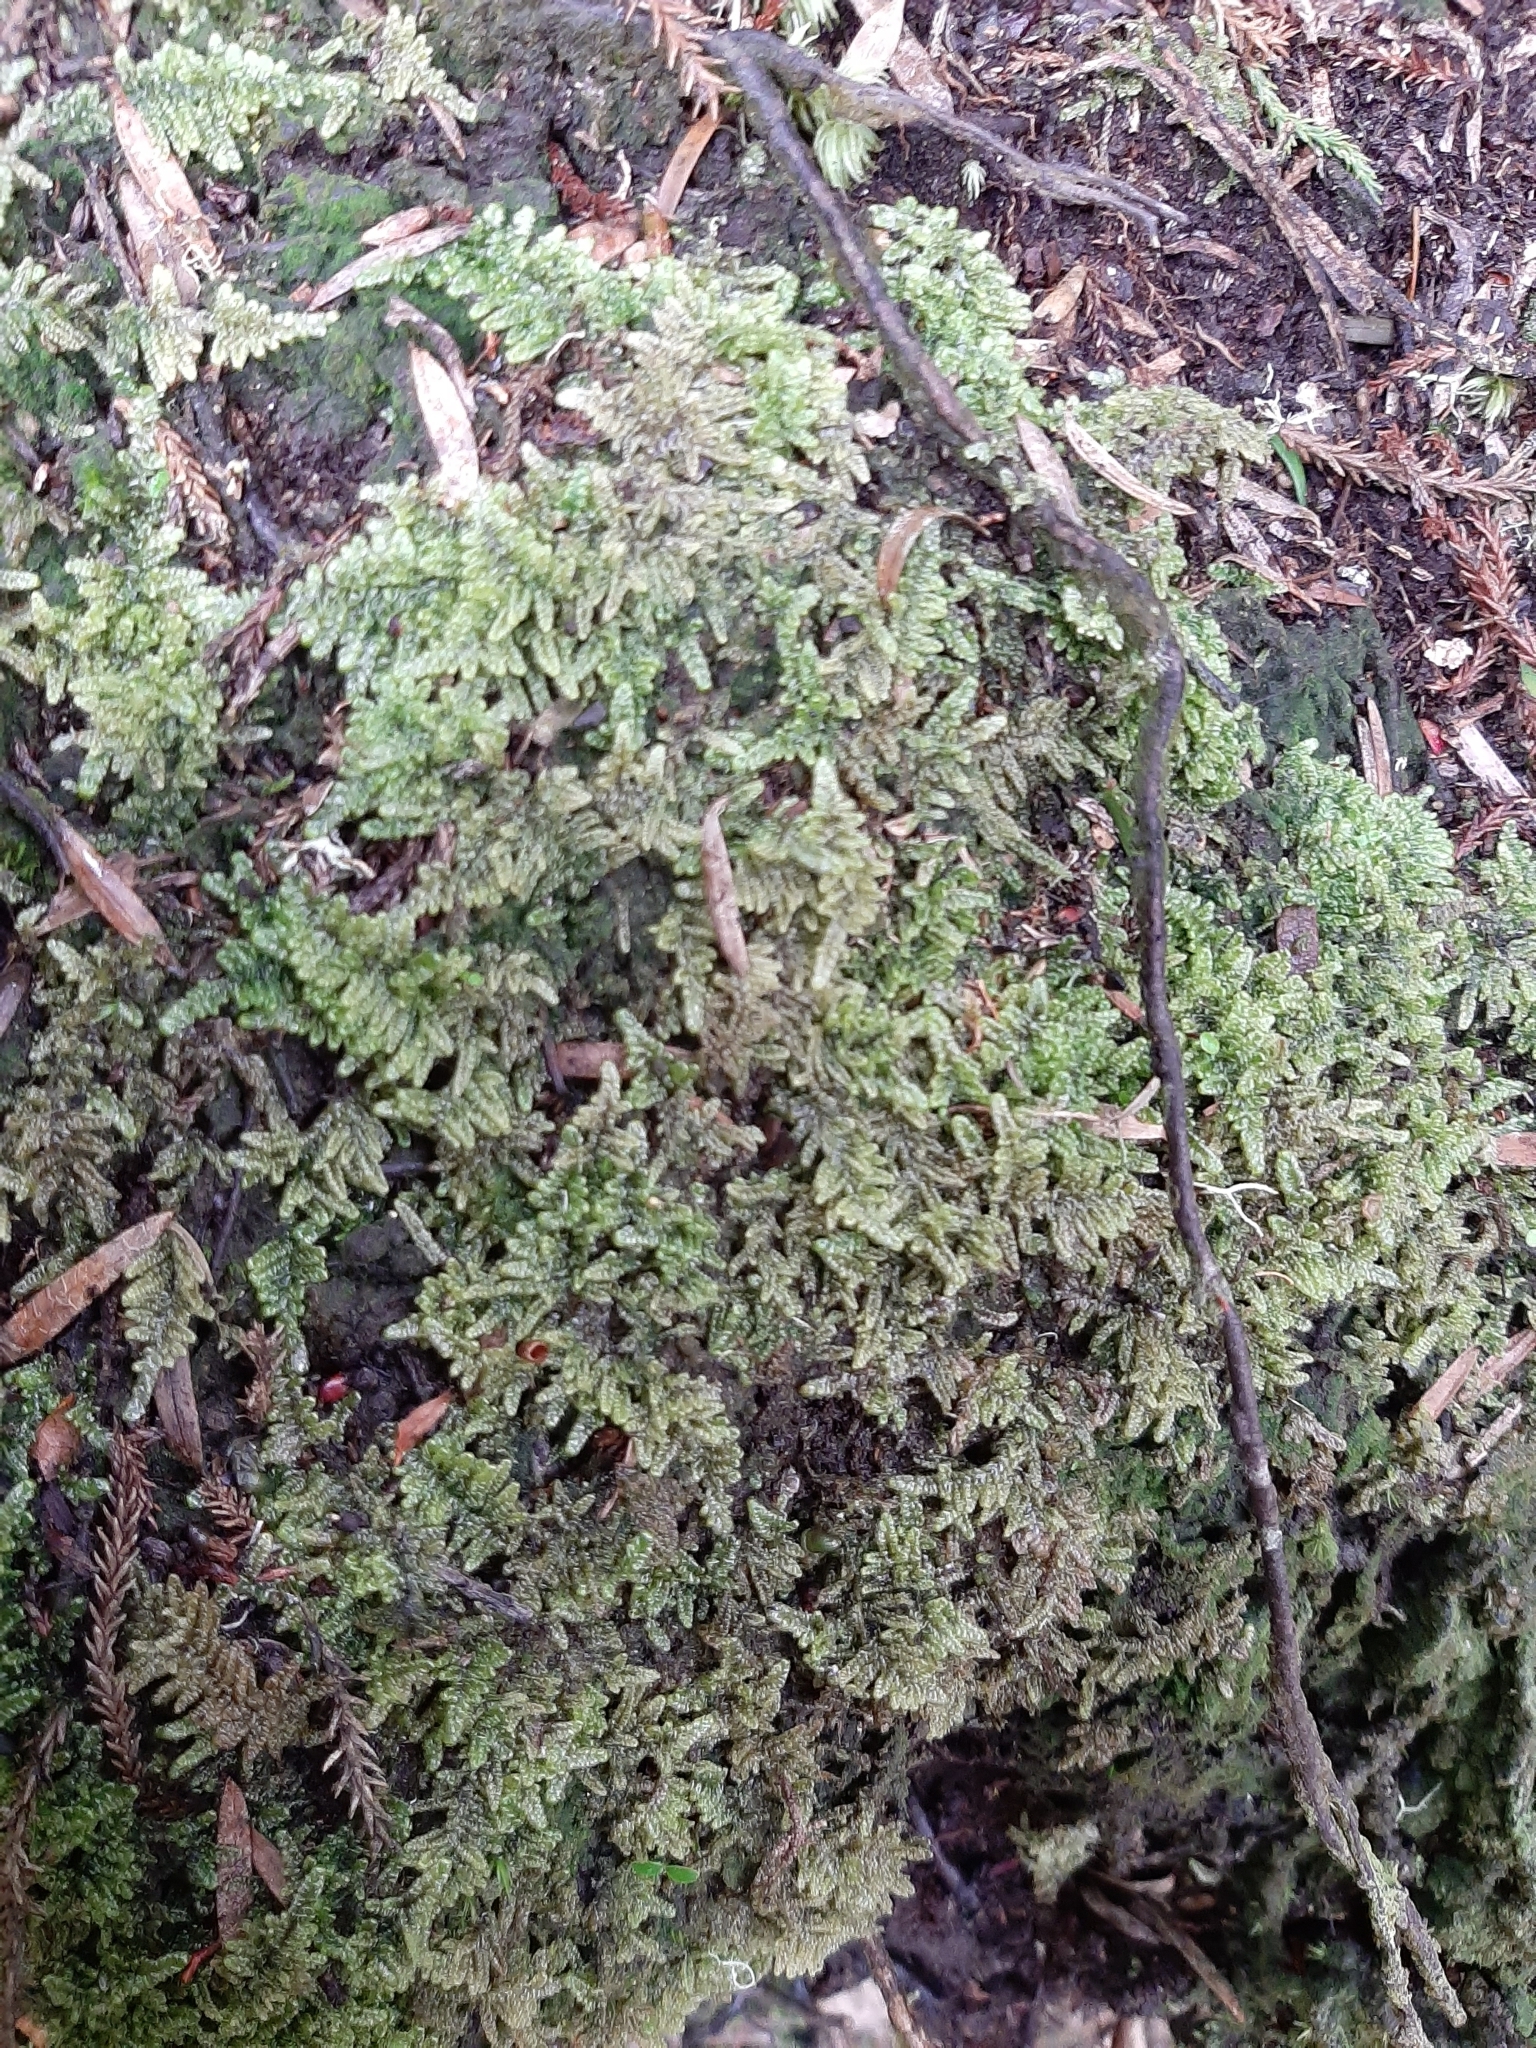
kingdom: Plantae
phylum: Bryophyta
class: Bryopsida
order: Hypnales
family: Hypnaceae
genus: Hypnum
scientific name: Hypnum cupressiforme
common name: Cypress-leaved plait-moss
